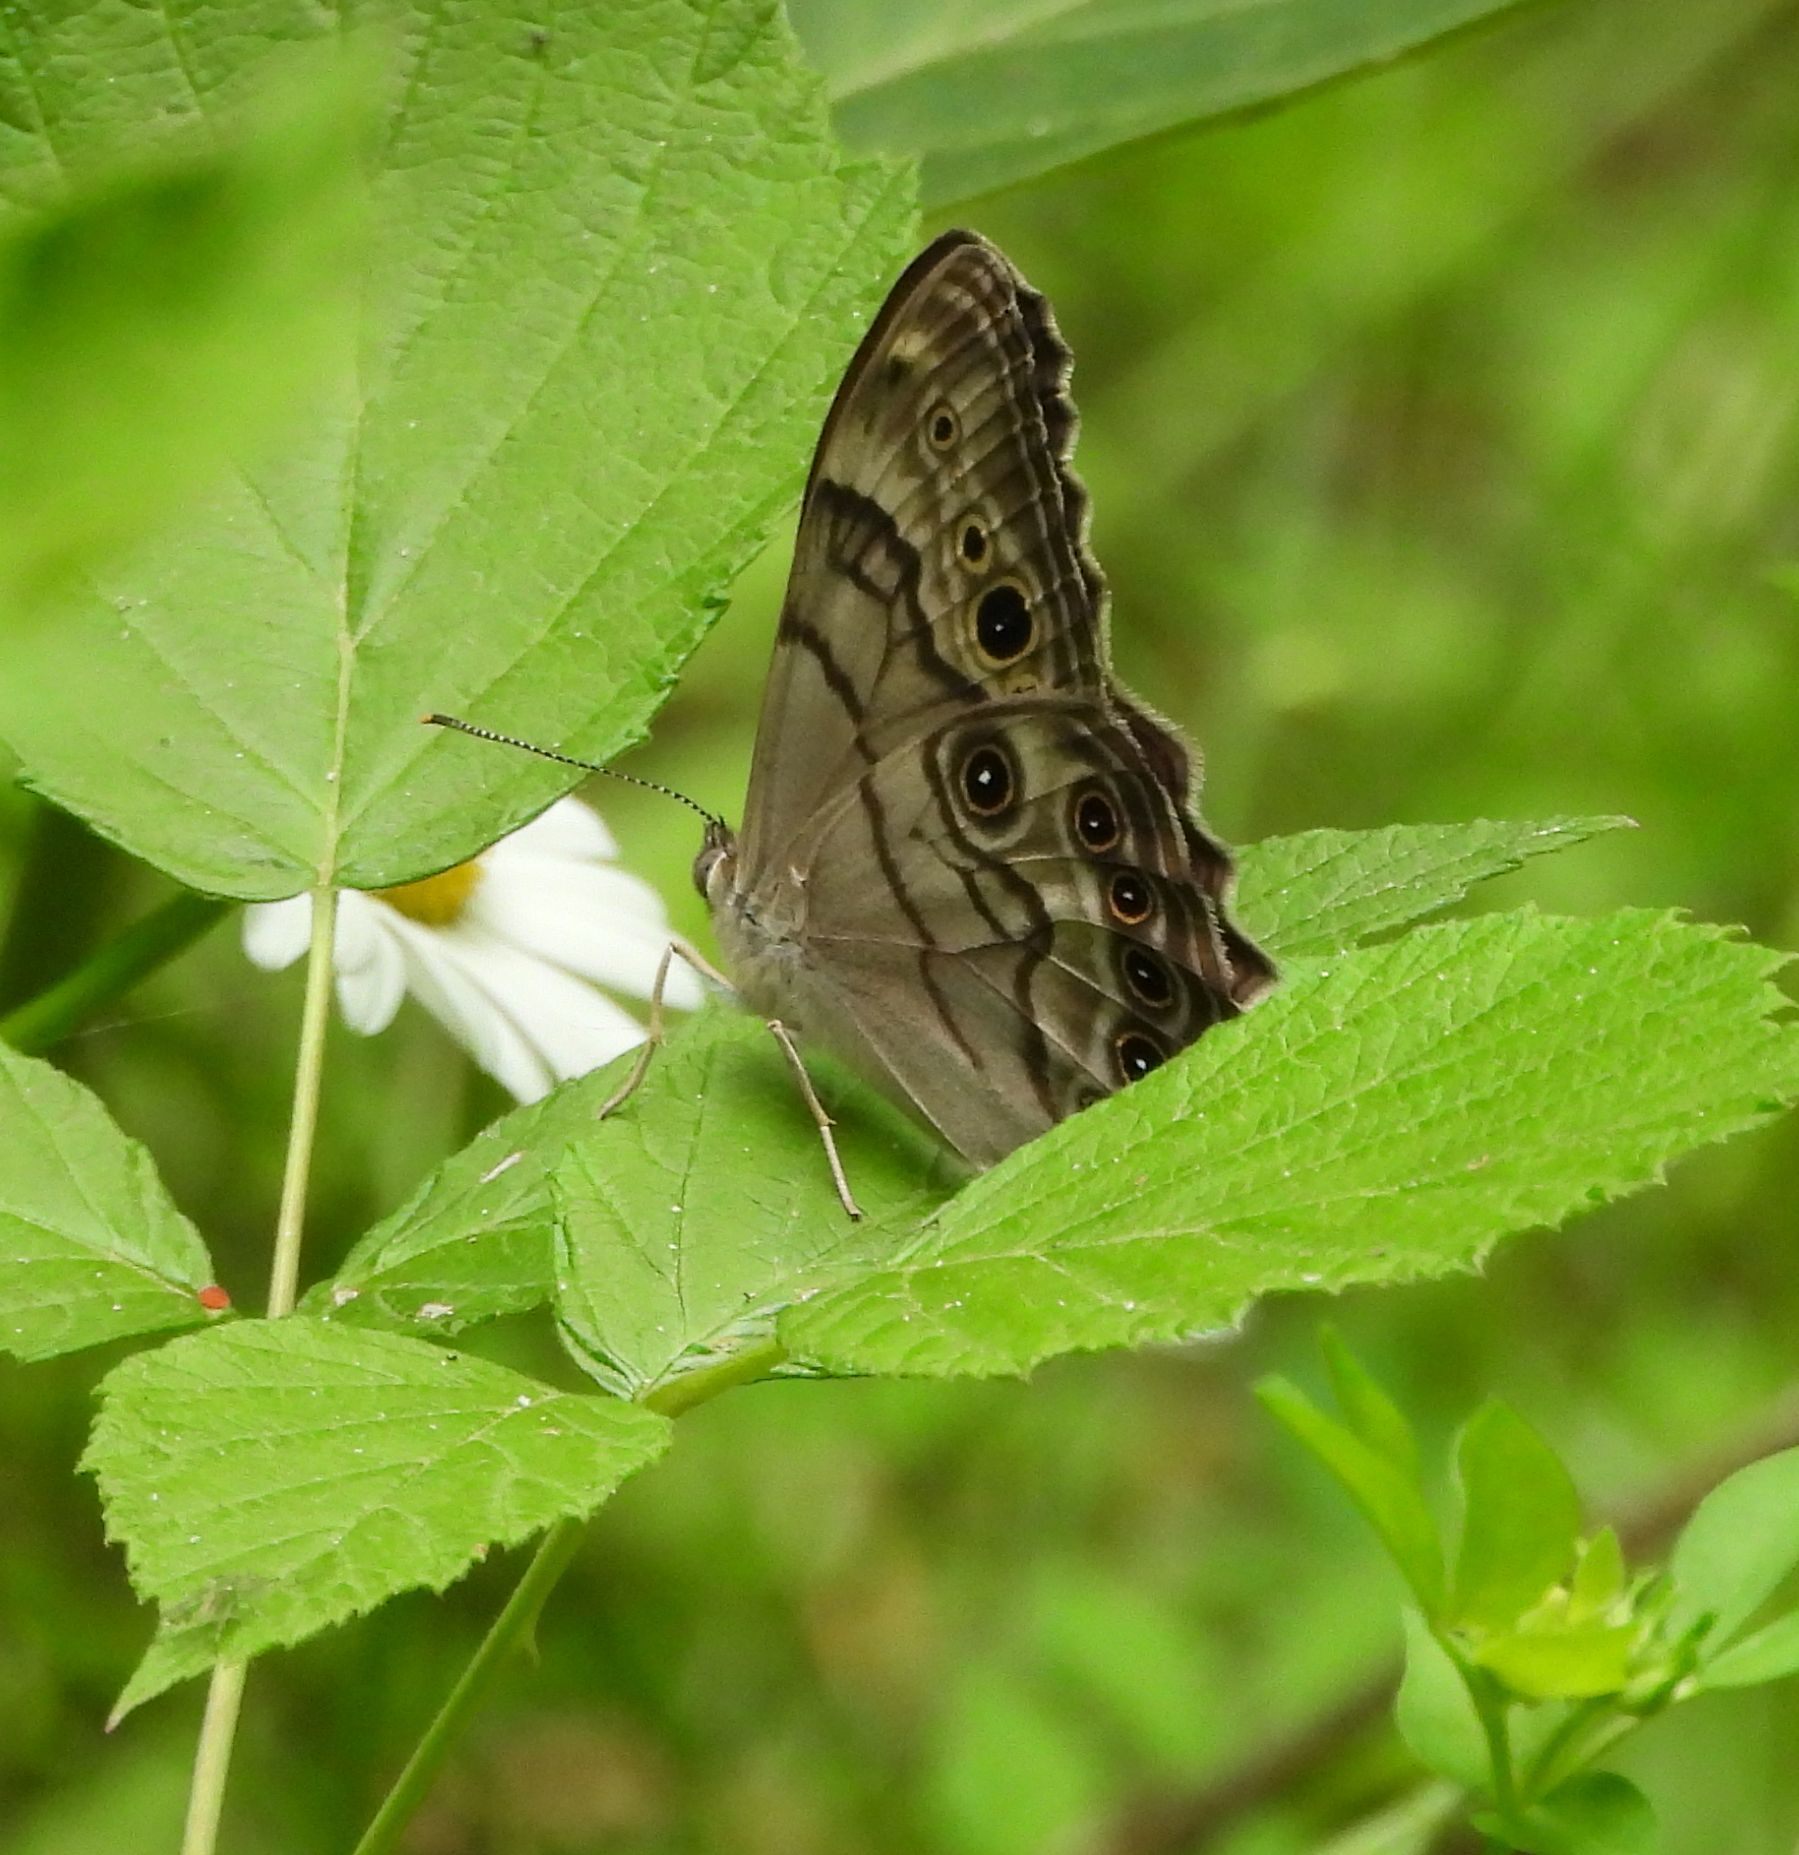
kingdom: Animalia
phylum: Arthropoda
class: Insecta
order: Lepidoptera
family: Nymphalidae
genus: Lethe
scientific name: Lethe anthedon
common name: Northern pearly-eye
